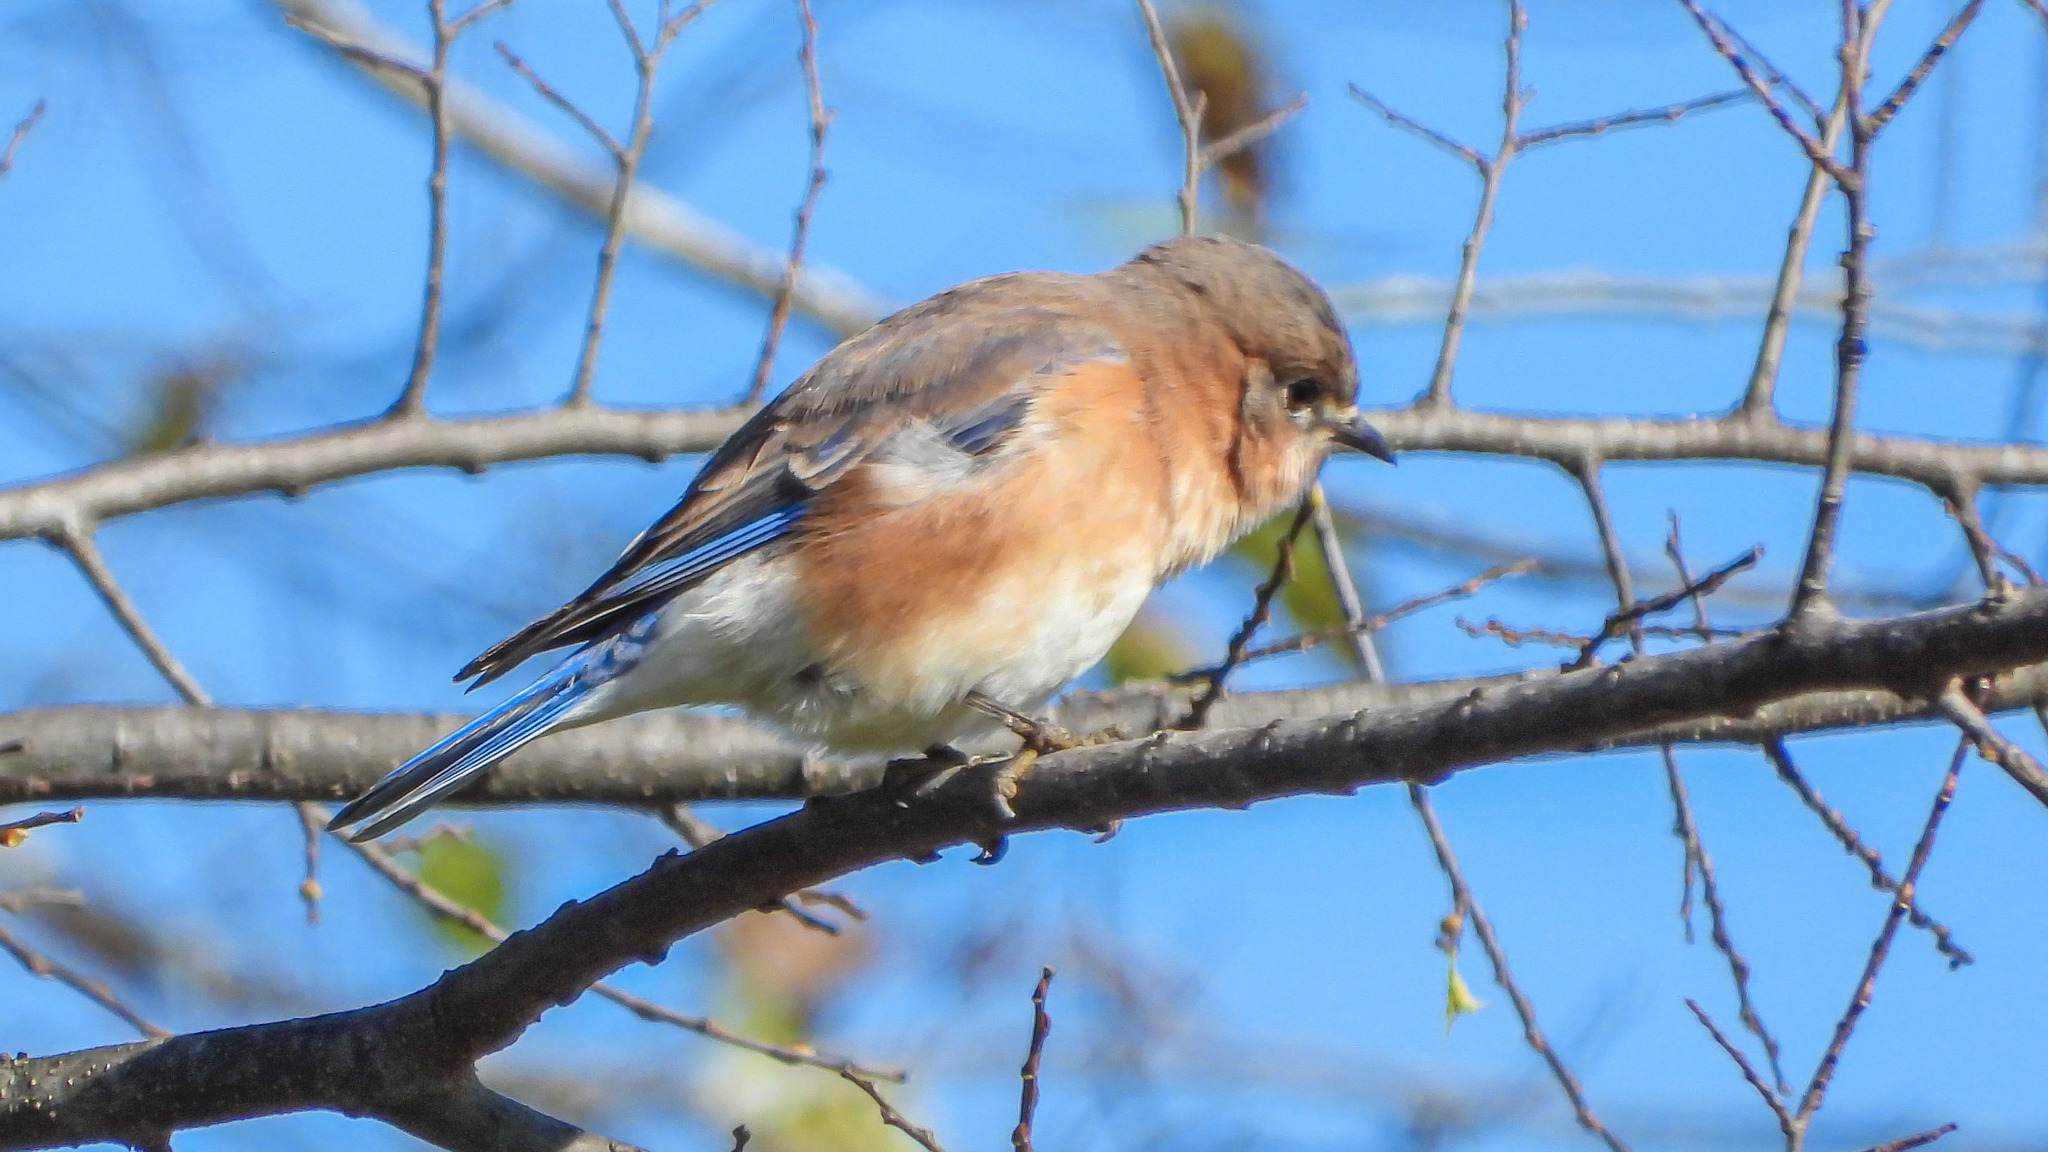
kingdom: Animalia
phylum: Chordata
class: Aves
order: Passeriformes
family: Turdidae
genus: Sialia
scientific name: Sialia sialis
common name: Eastern bluebird
